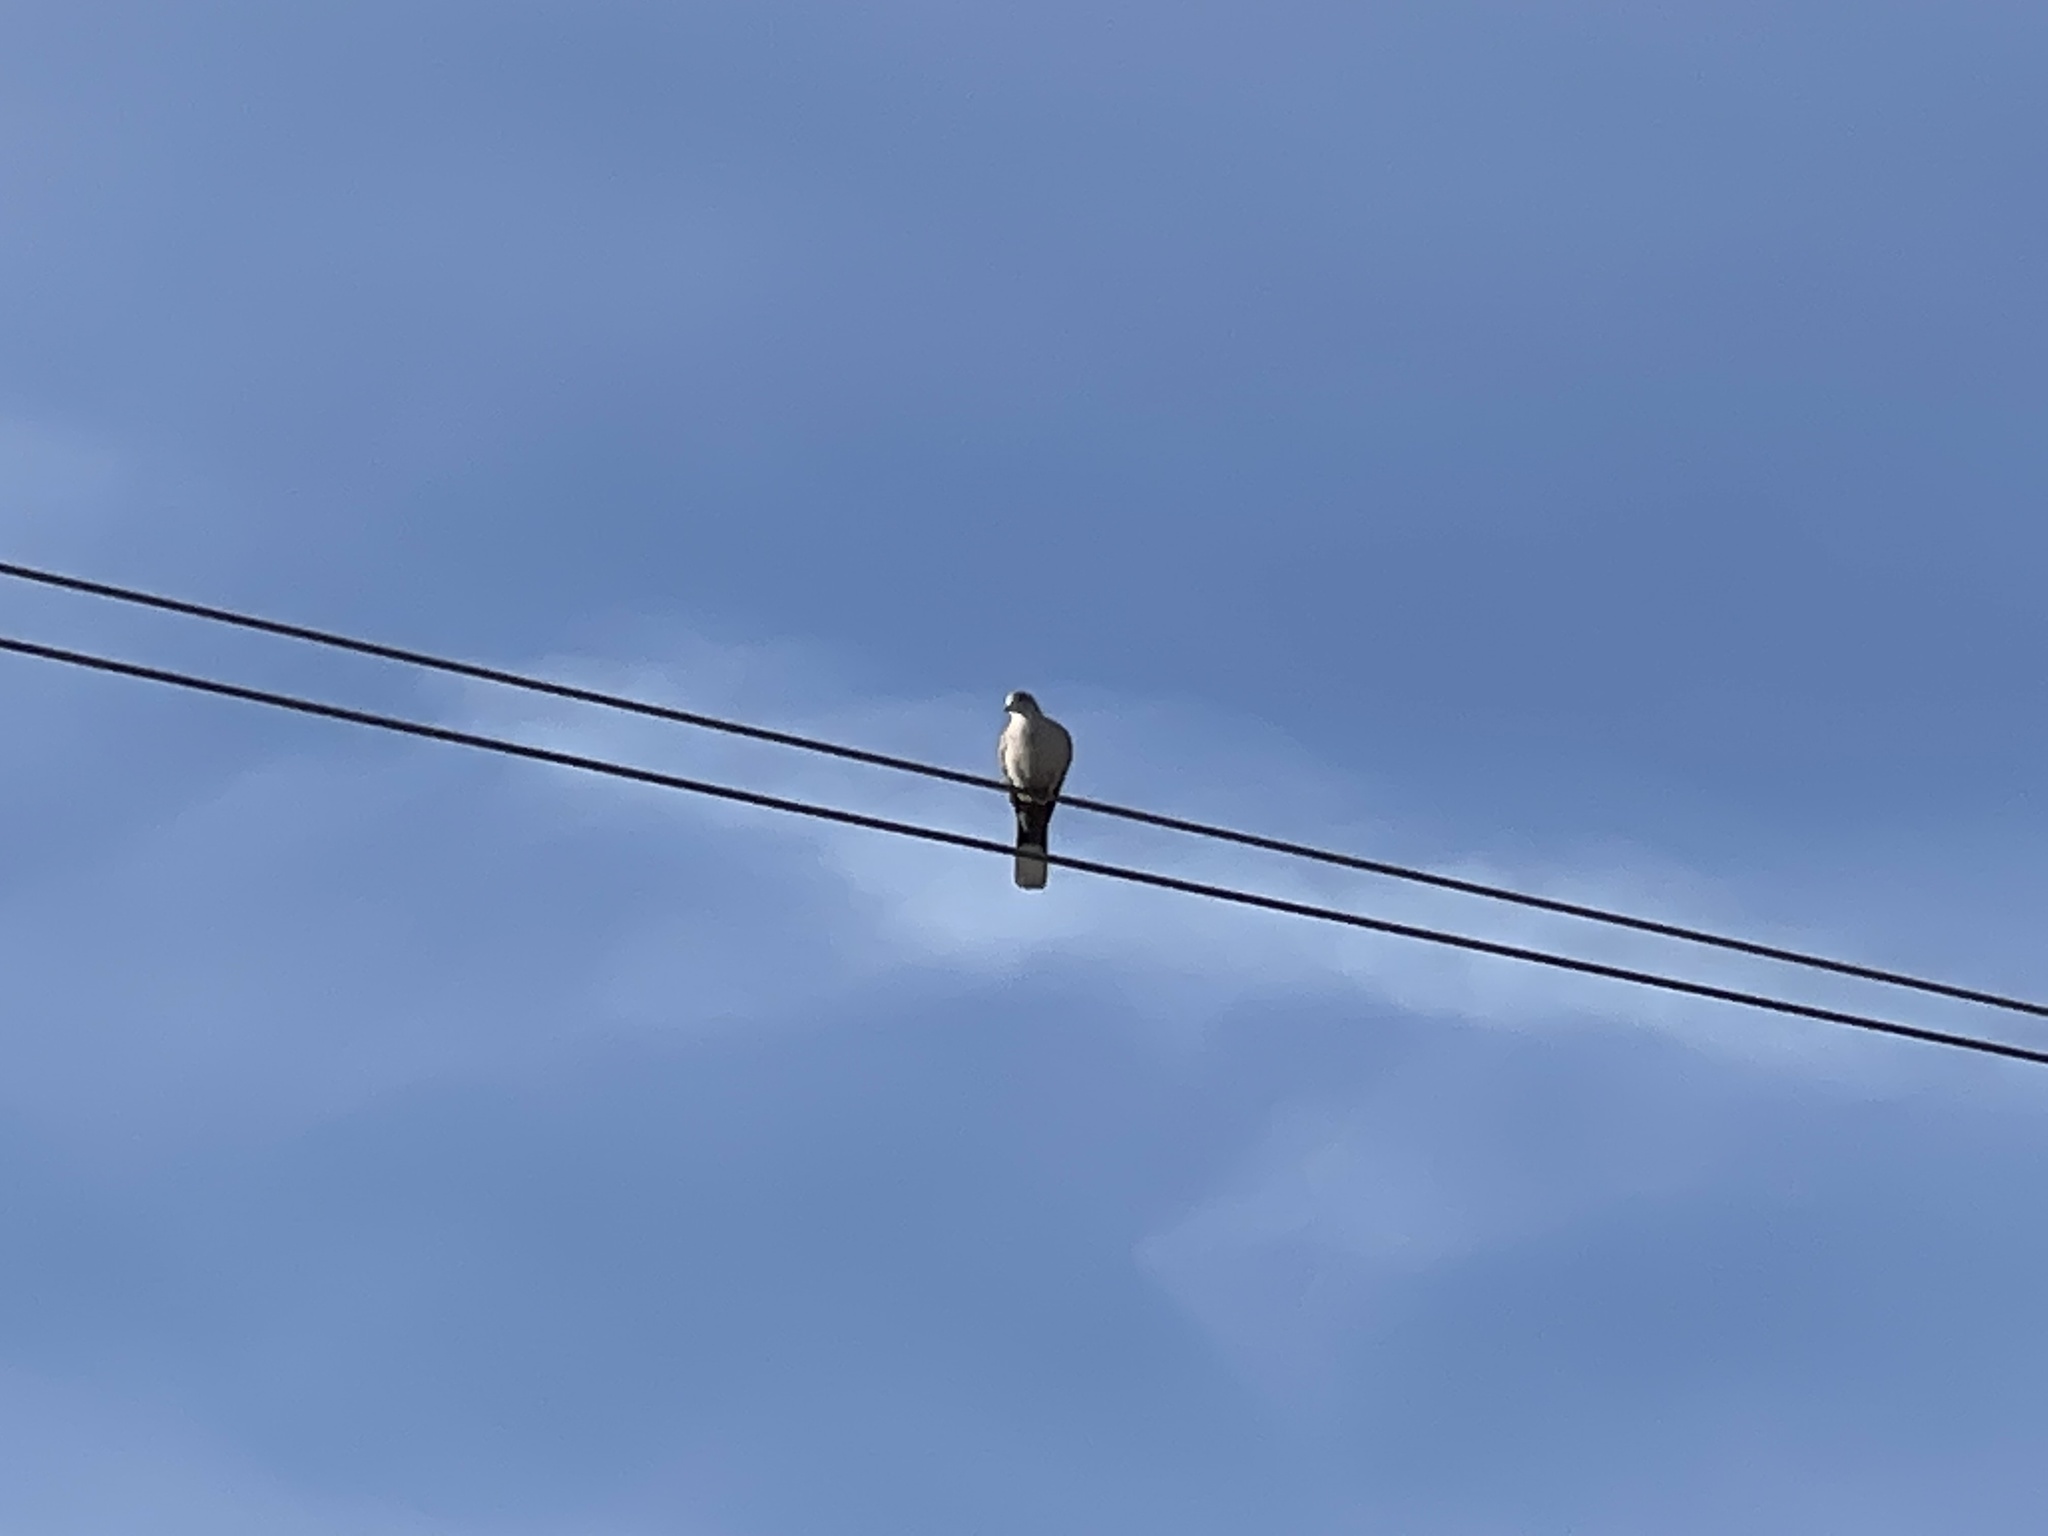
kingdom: Animalia
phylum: Chordata
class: Aves
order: Columbiformes
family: Columbidae
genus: Streptopelia
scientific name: Streptopelia decaocto
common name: Eurasian collared dove
